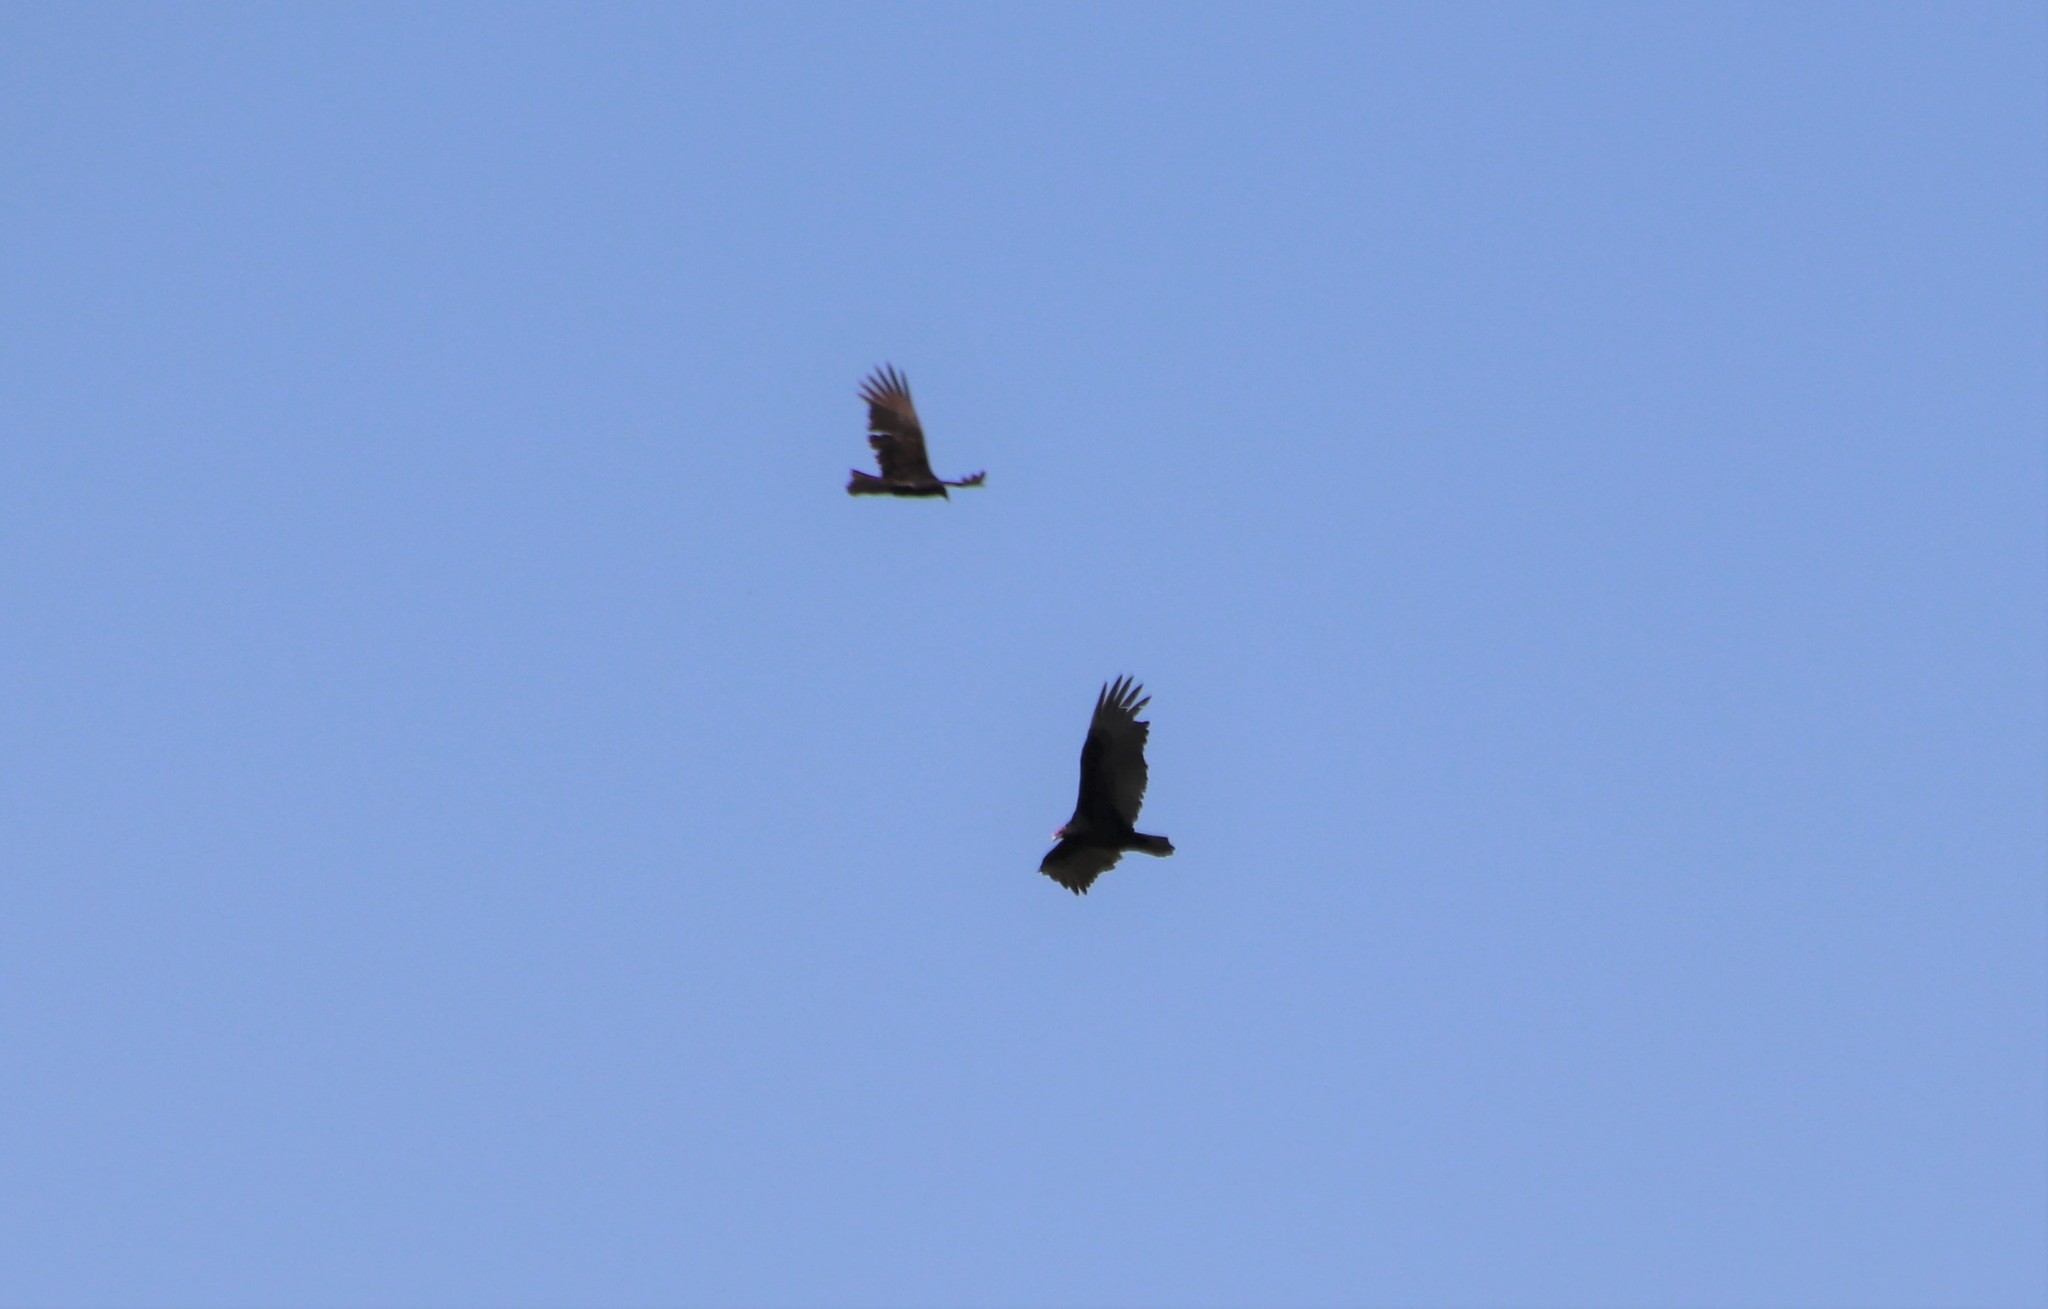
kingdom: Animalia
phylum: Chordata
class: Aves
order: Accipitriformes
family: Cathartidae
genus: Cathartes
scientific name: Cathartes aura
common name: Turkey vulture
